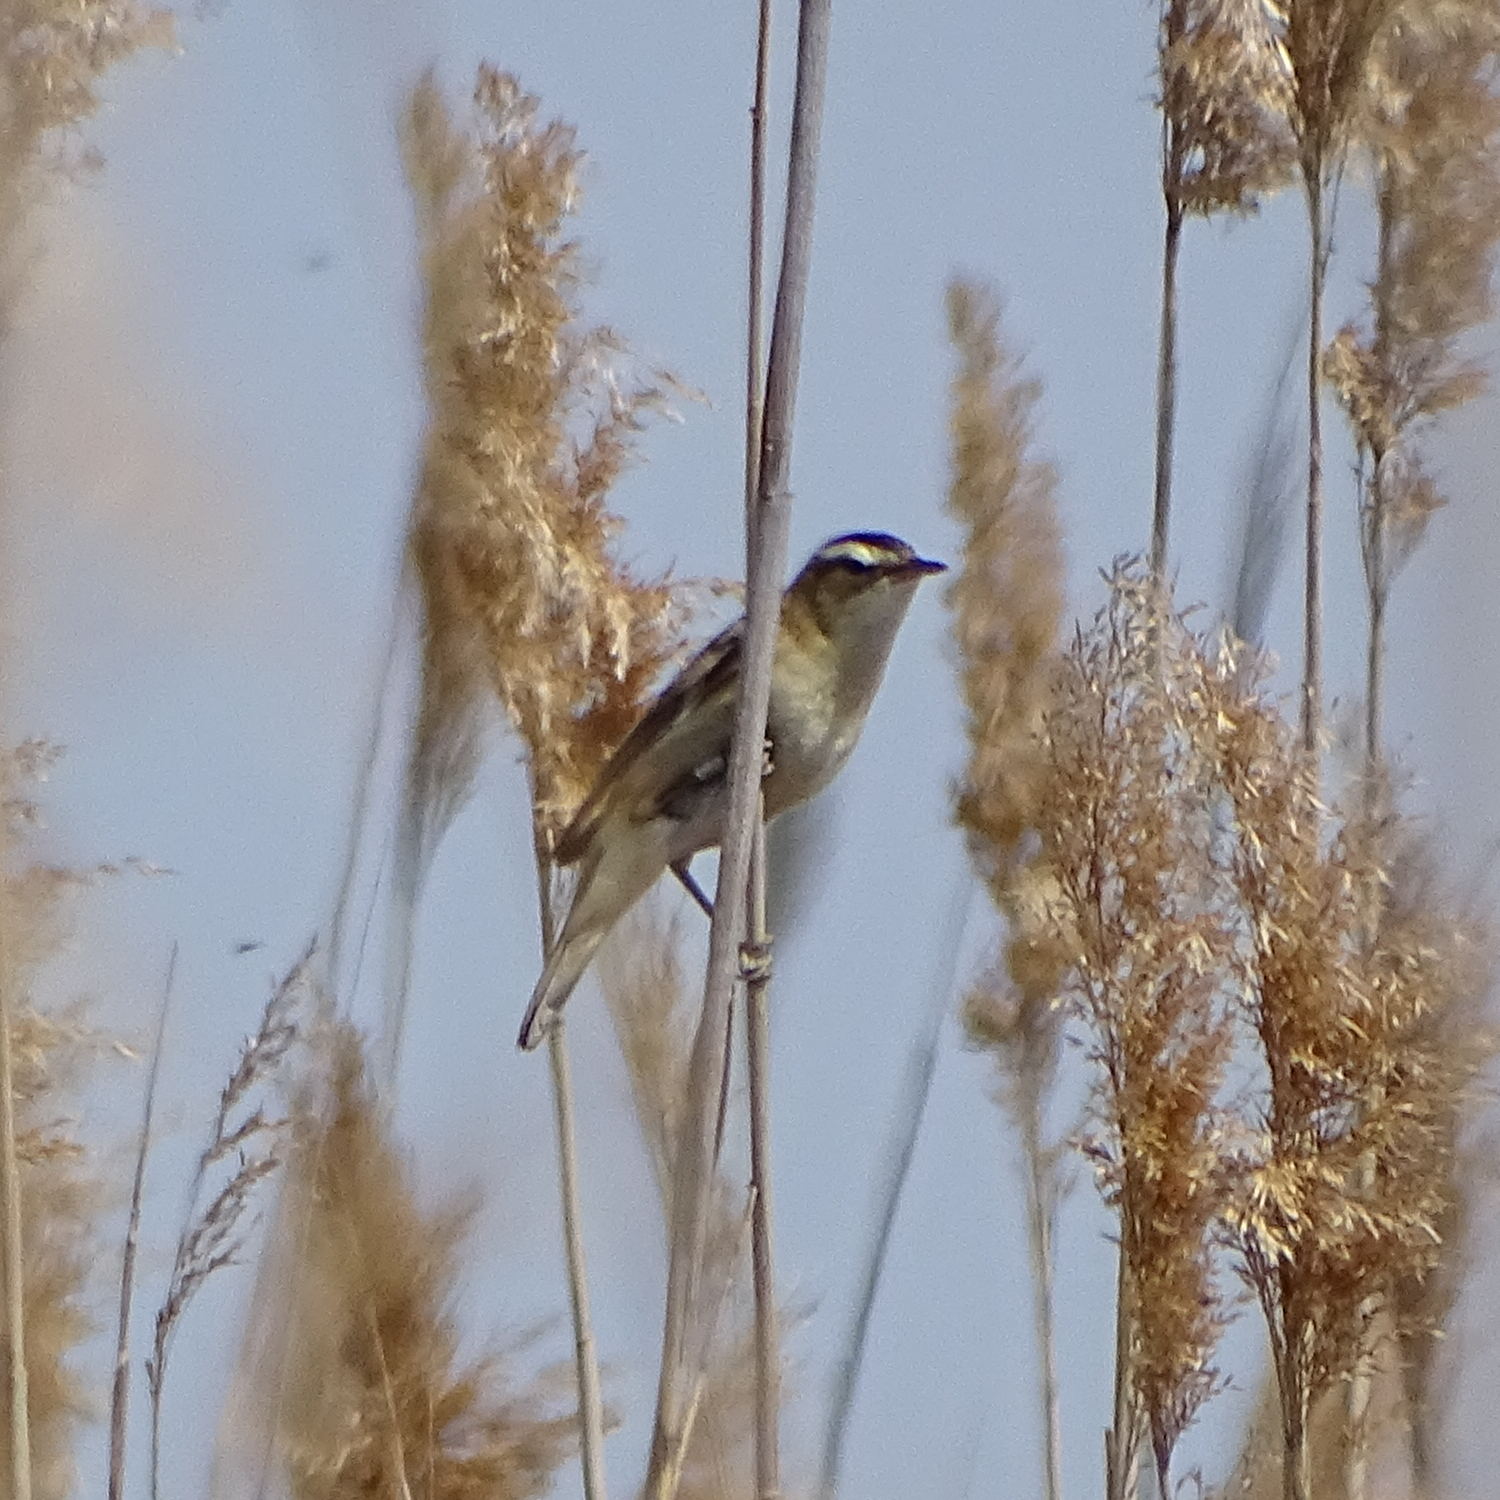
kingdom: Animalia
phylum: Chordata
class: Aves
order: Passeriformes
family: Acrocephalidae
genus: Acrocephalus
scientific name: Acrocephalus schoenobaenus
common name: Sedge warbler
